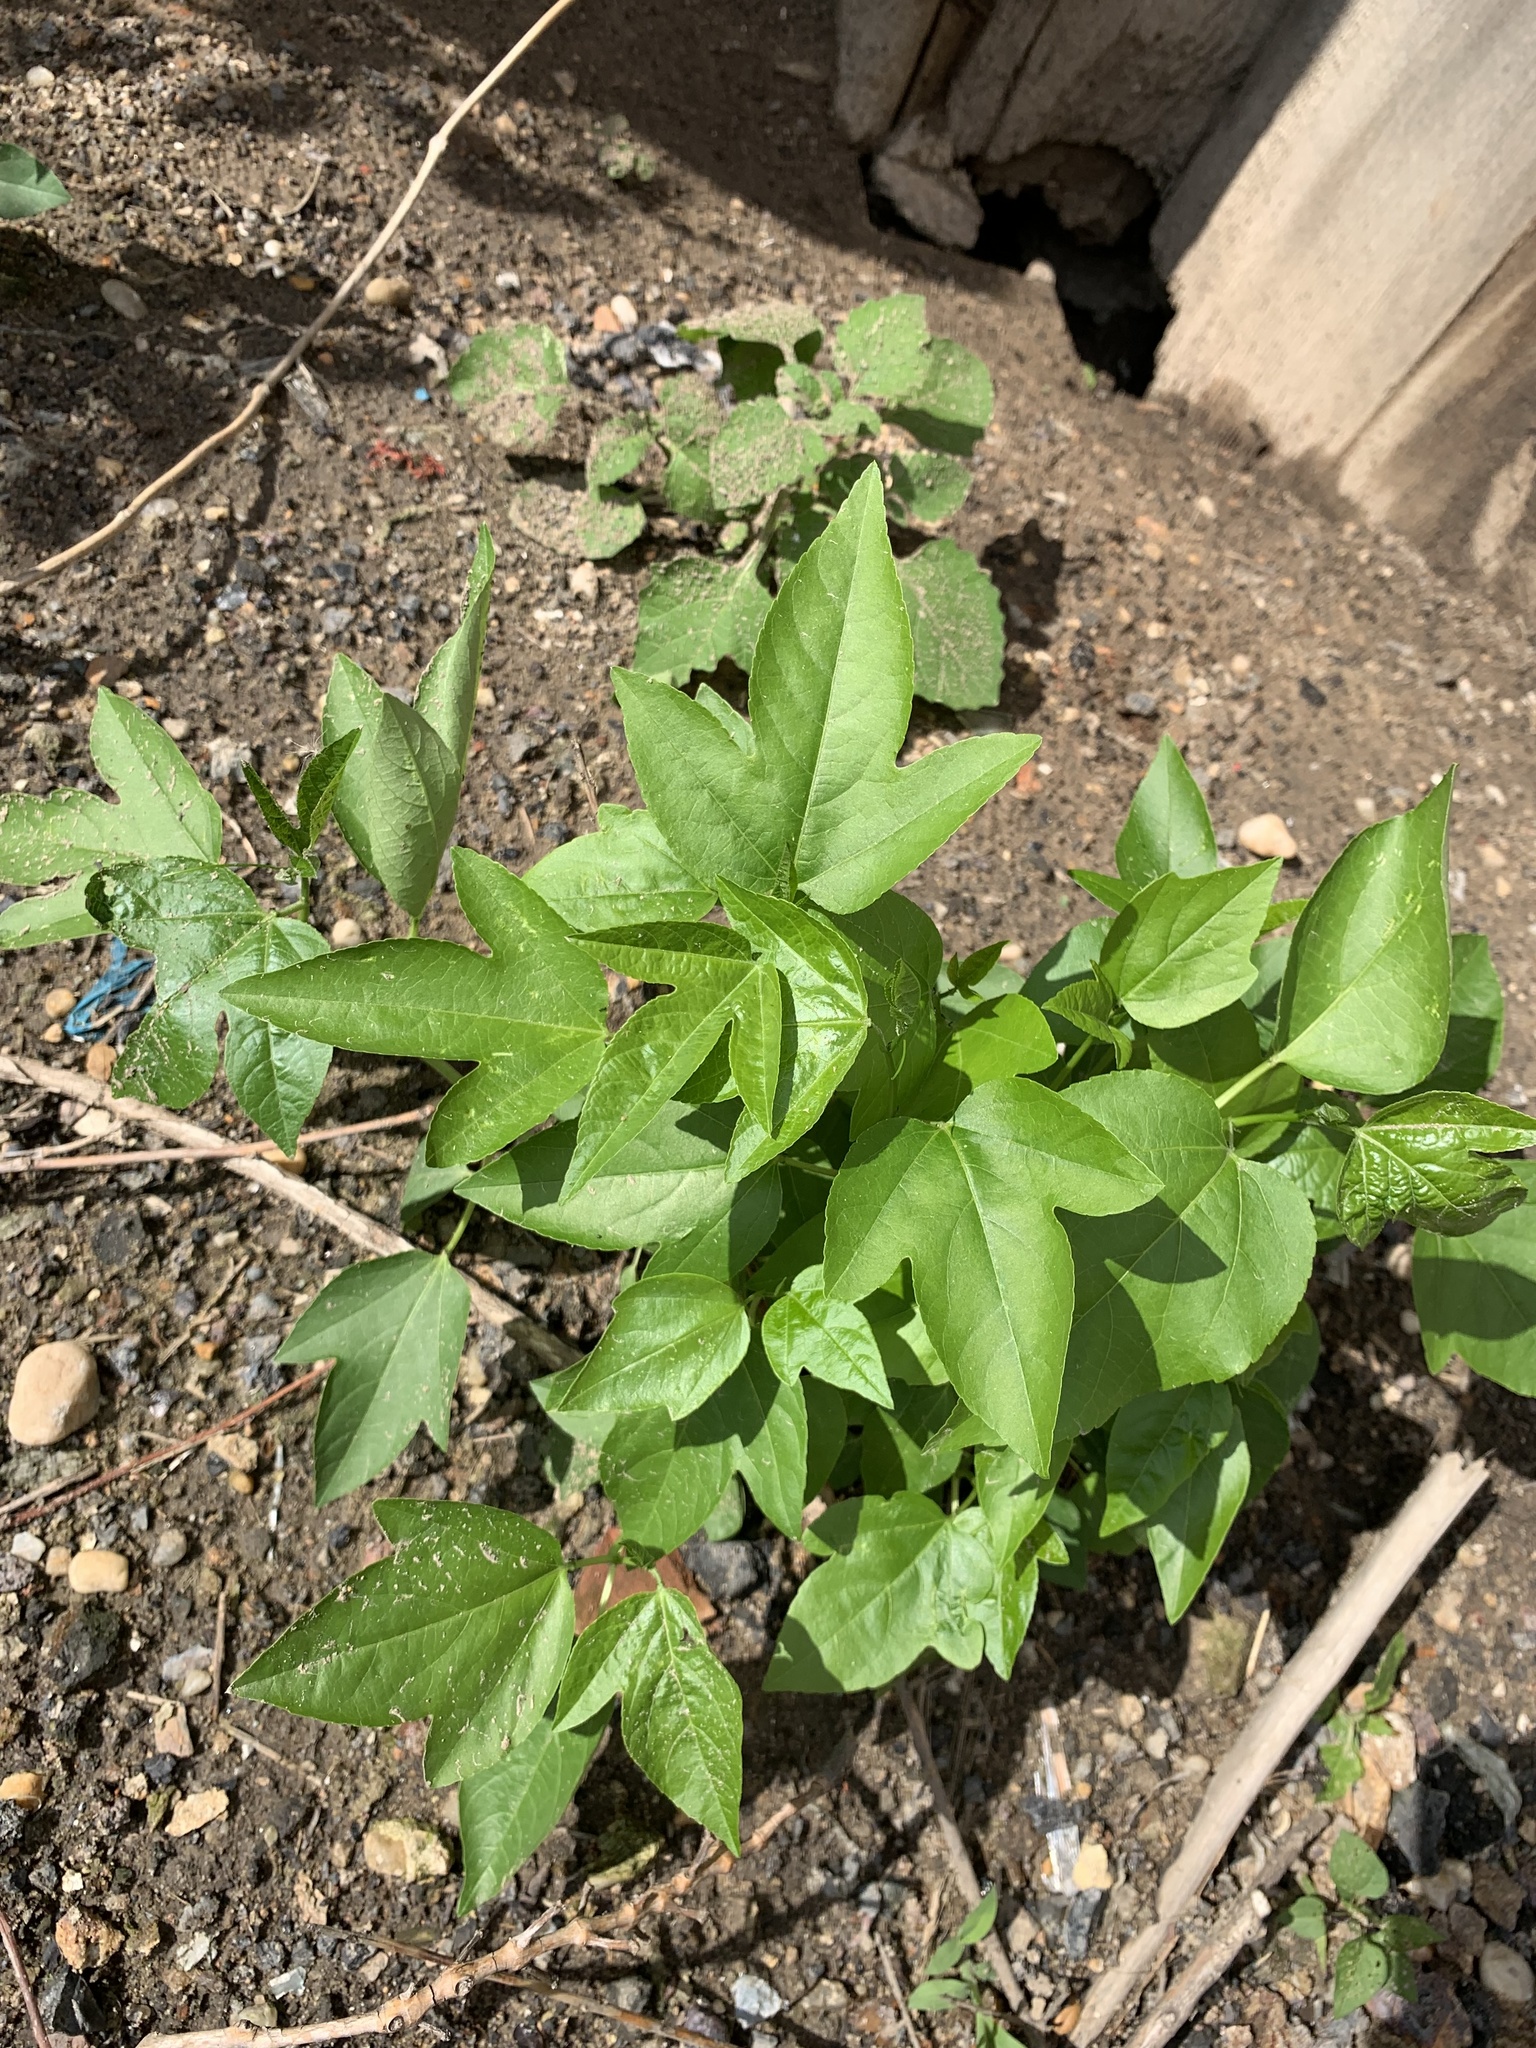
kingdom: Plantae
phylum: Tracheophyta
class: Magnoliopsida
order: Malpighiales
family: Passifloraceae
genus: Passiflora
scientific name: Passiflora incarnata
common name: Apricot-vine
